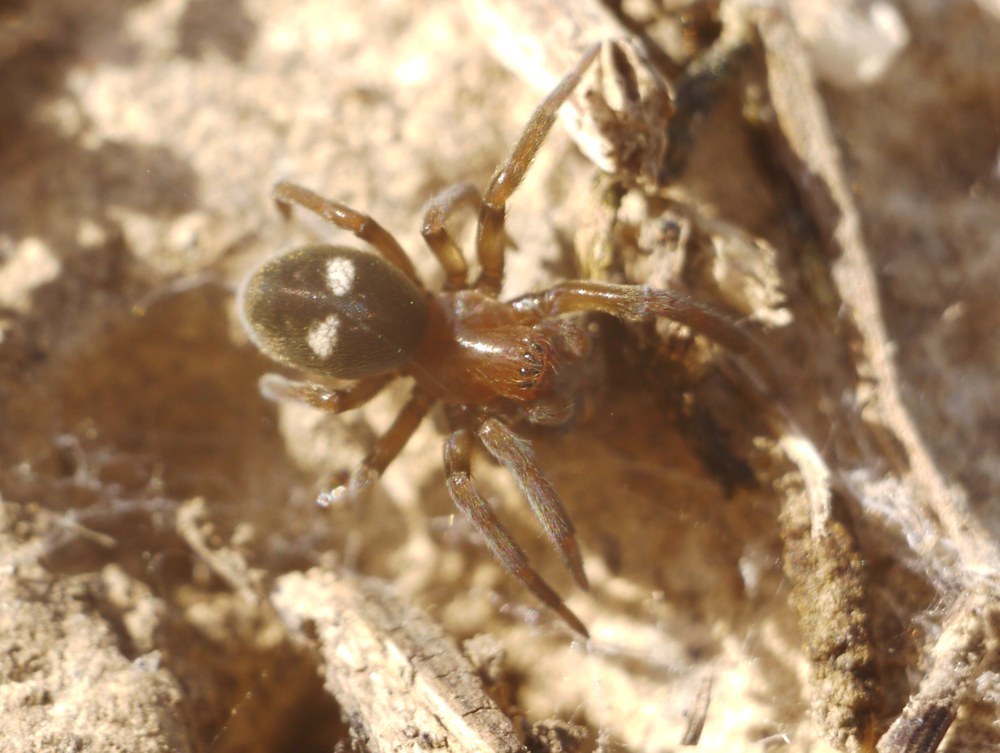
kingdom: Animalia
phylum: Arthropoda
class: Arachnida
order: Araneae
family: Titanoecidae
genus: Titanoeca
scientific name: Titanoeca schineri
